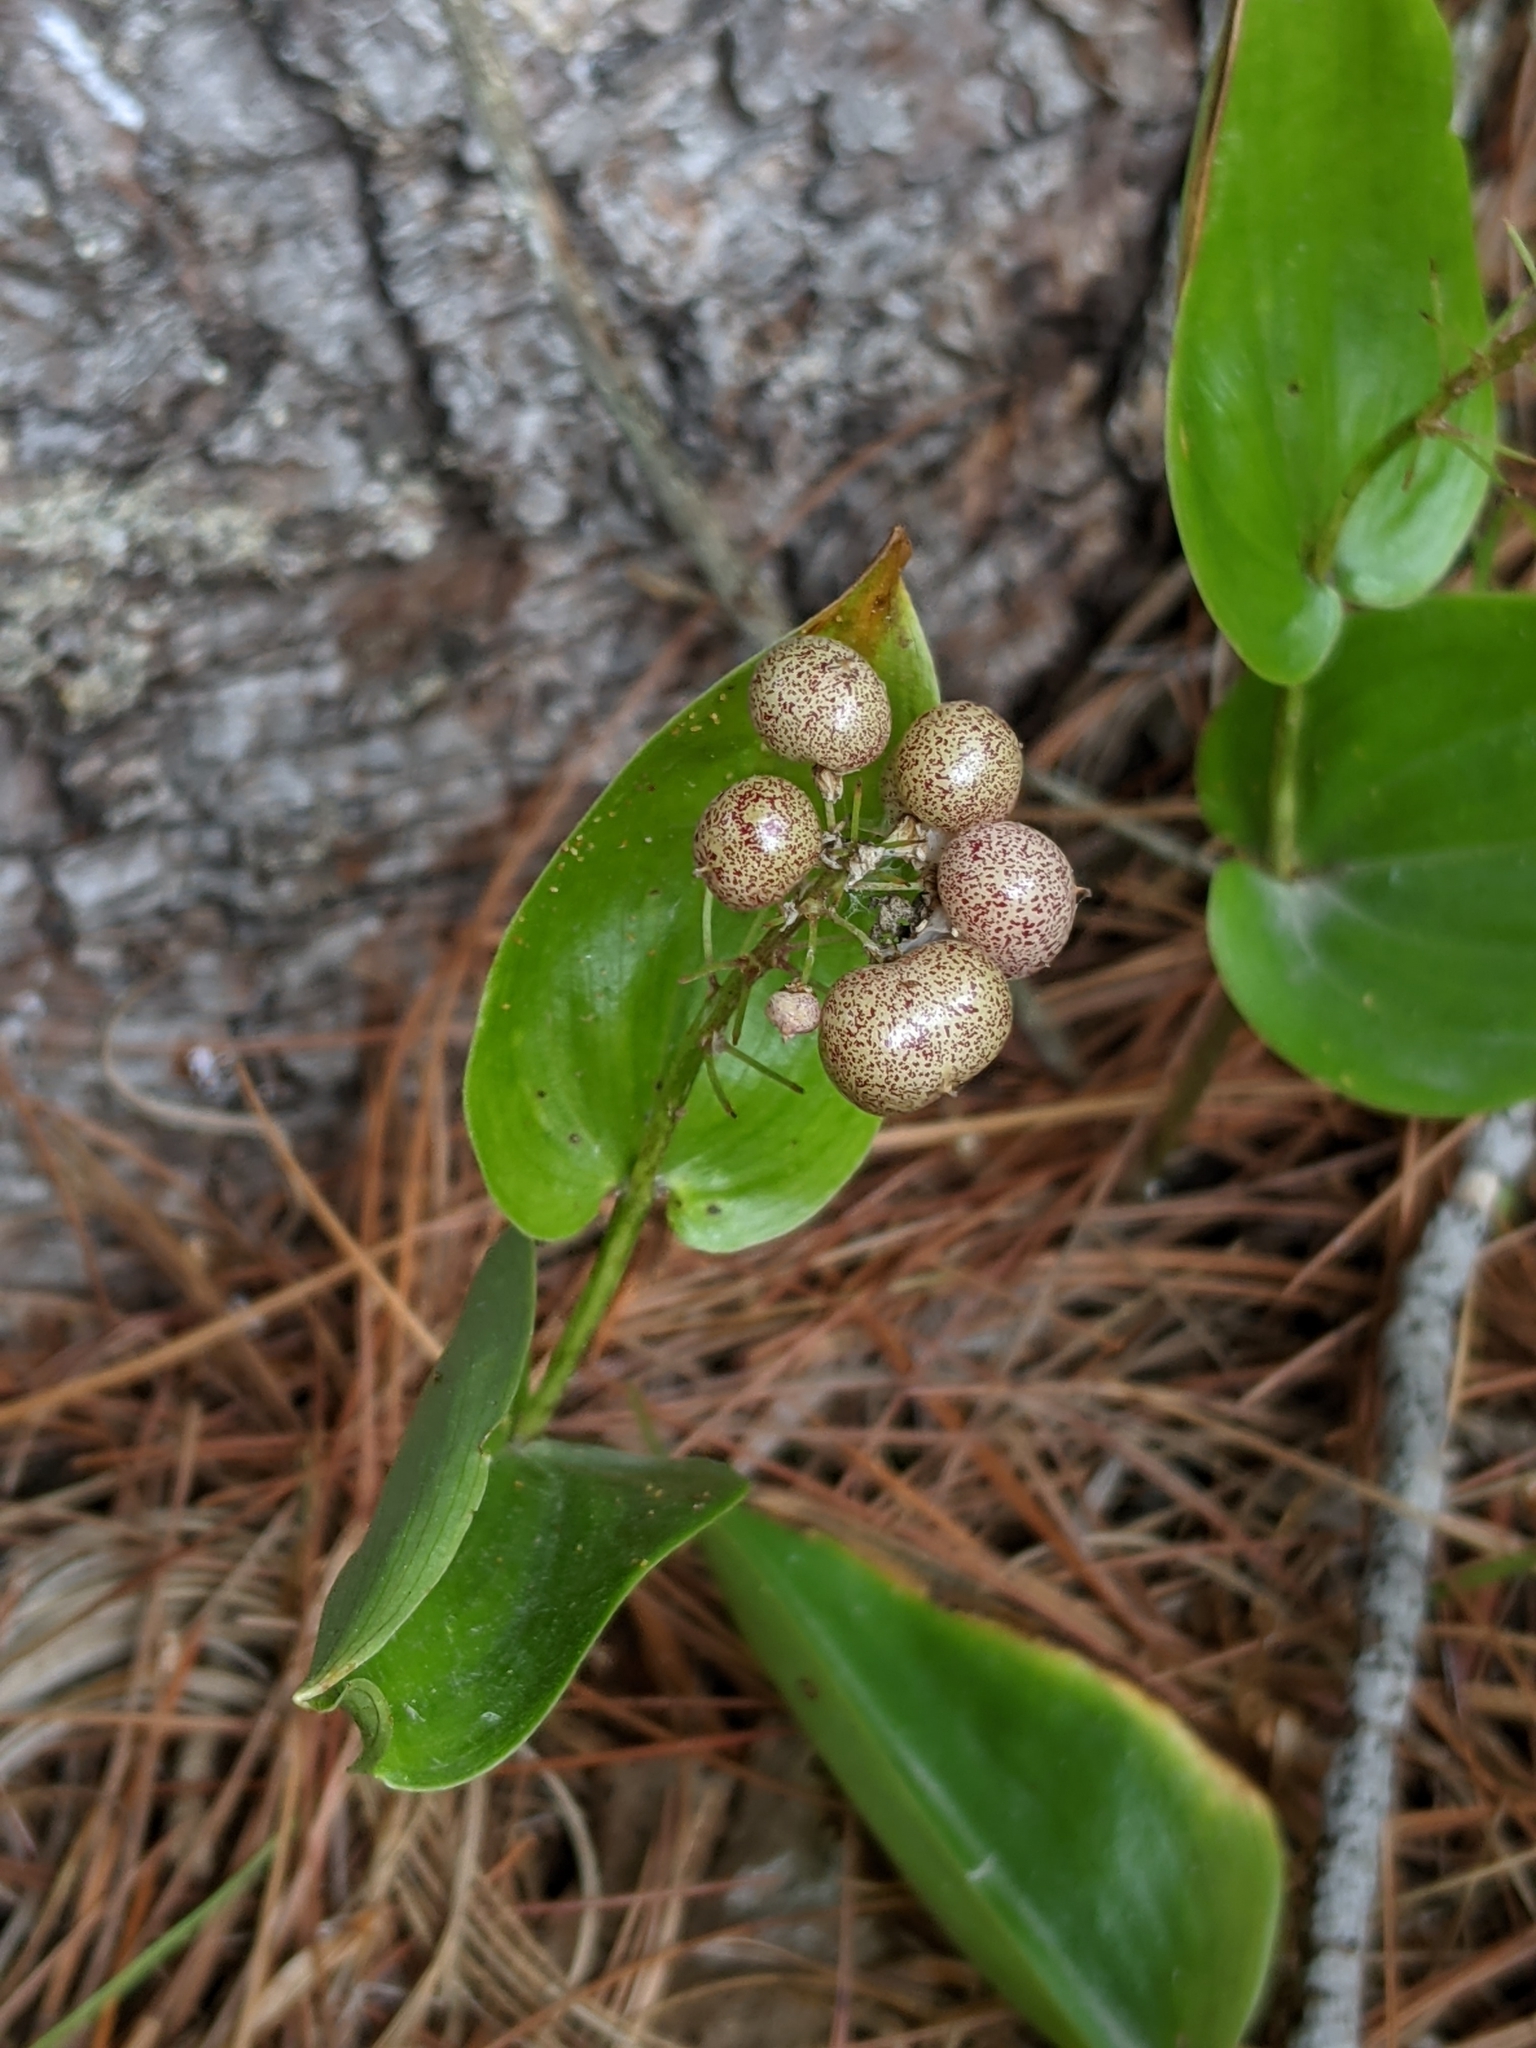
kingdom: Plantae
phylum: Tracheophyta
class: Liliopsida
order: Asparagales
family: Asparagaceae
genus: Maianthemum
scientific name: Maianthemum canadense
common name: False lily-of-the-valley
